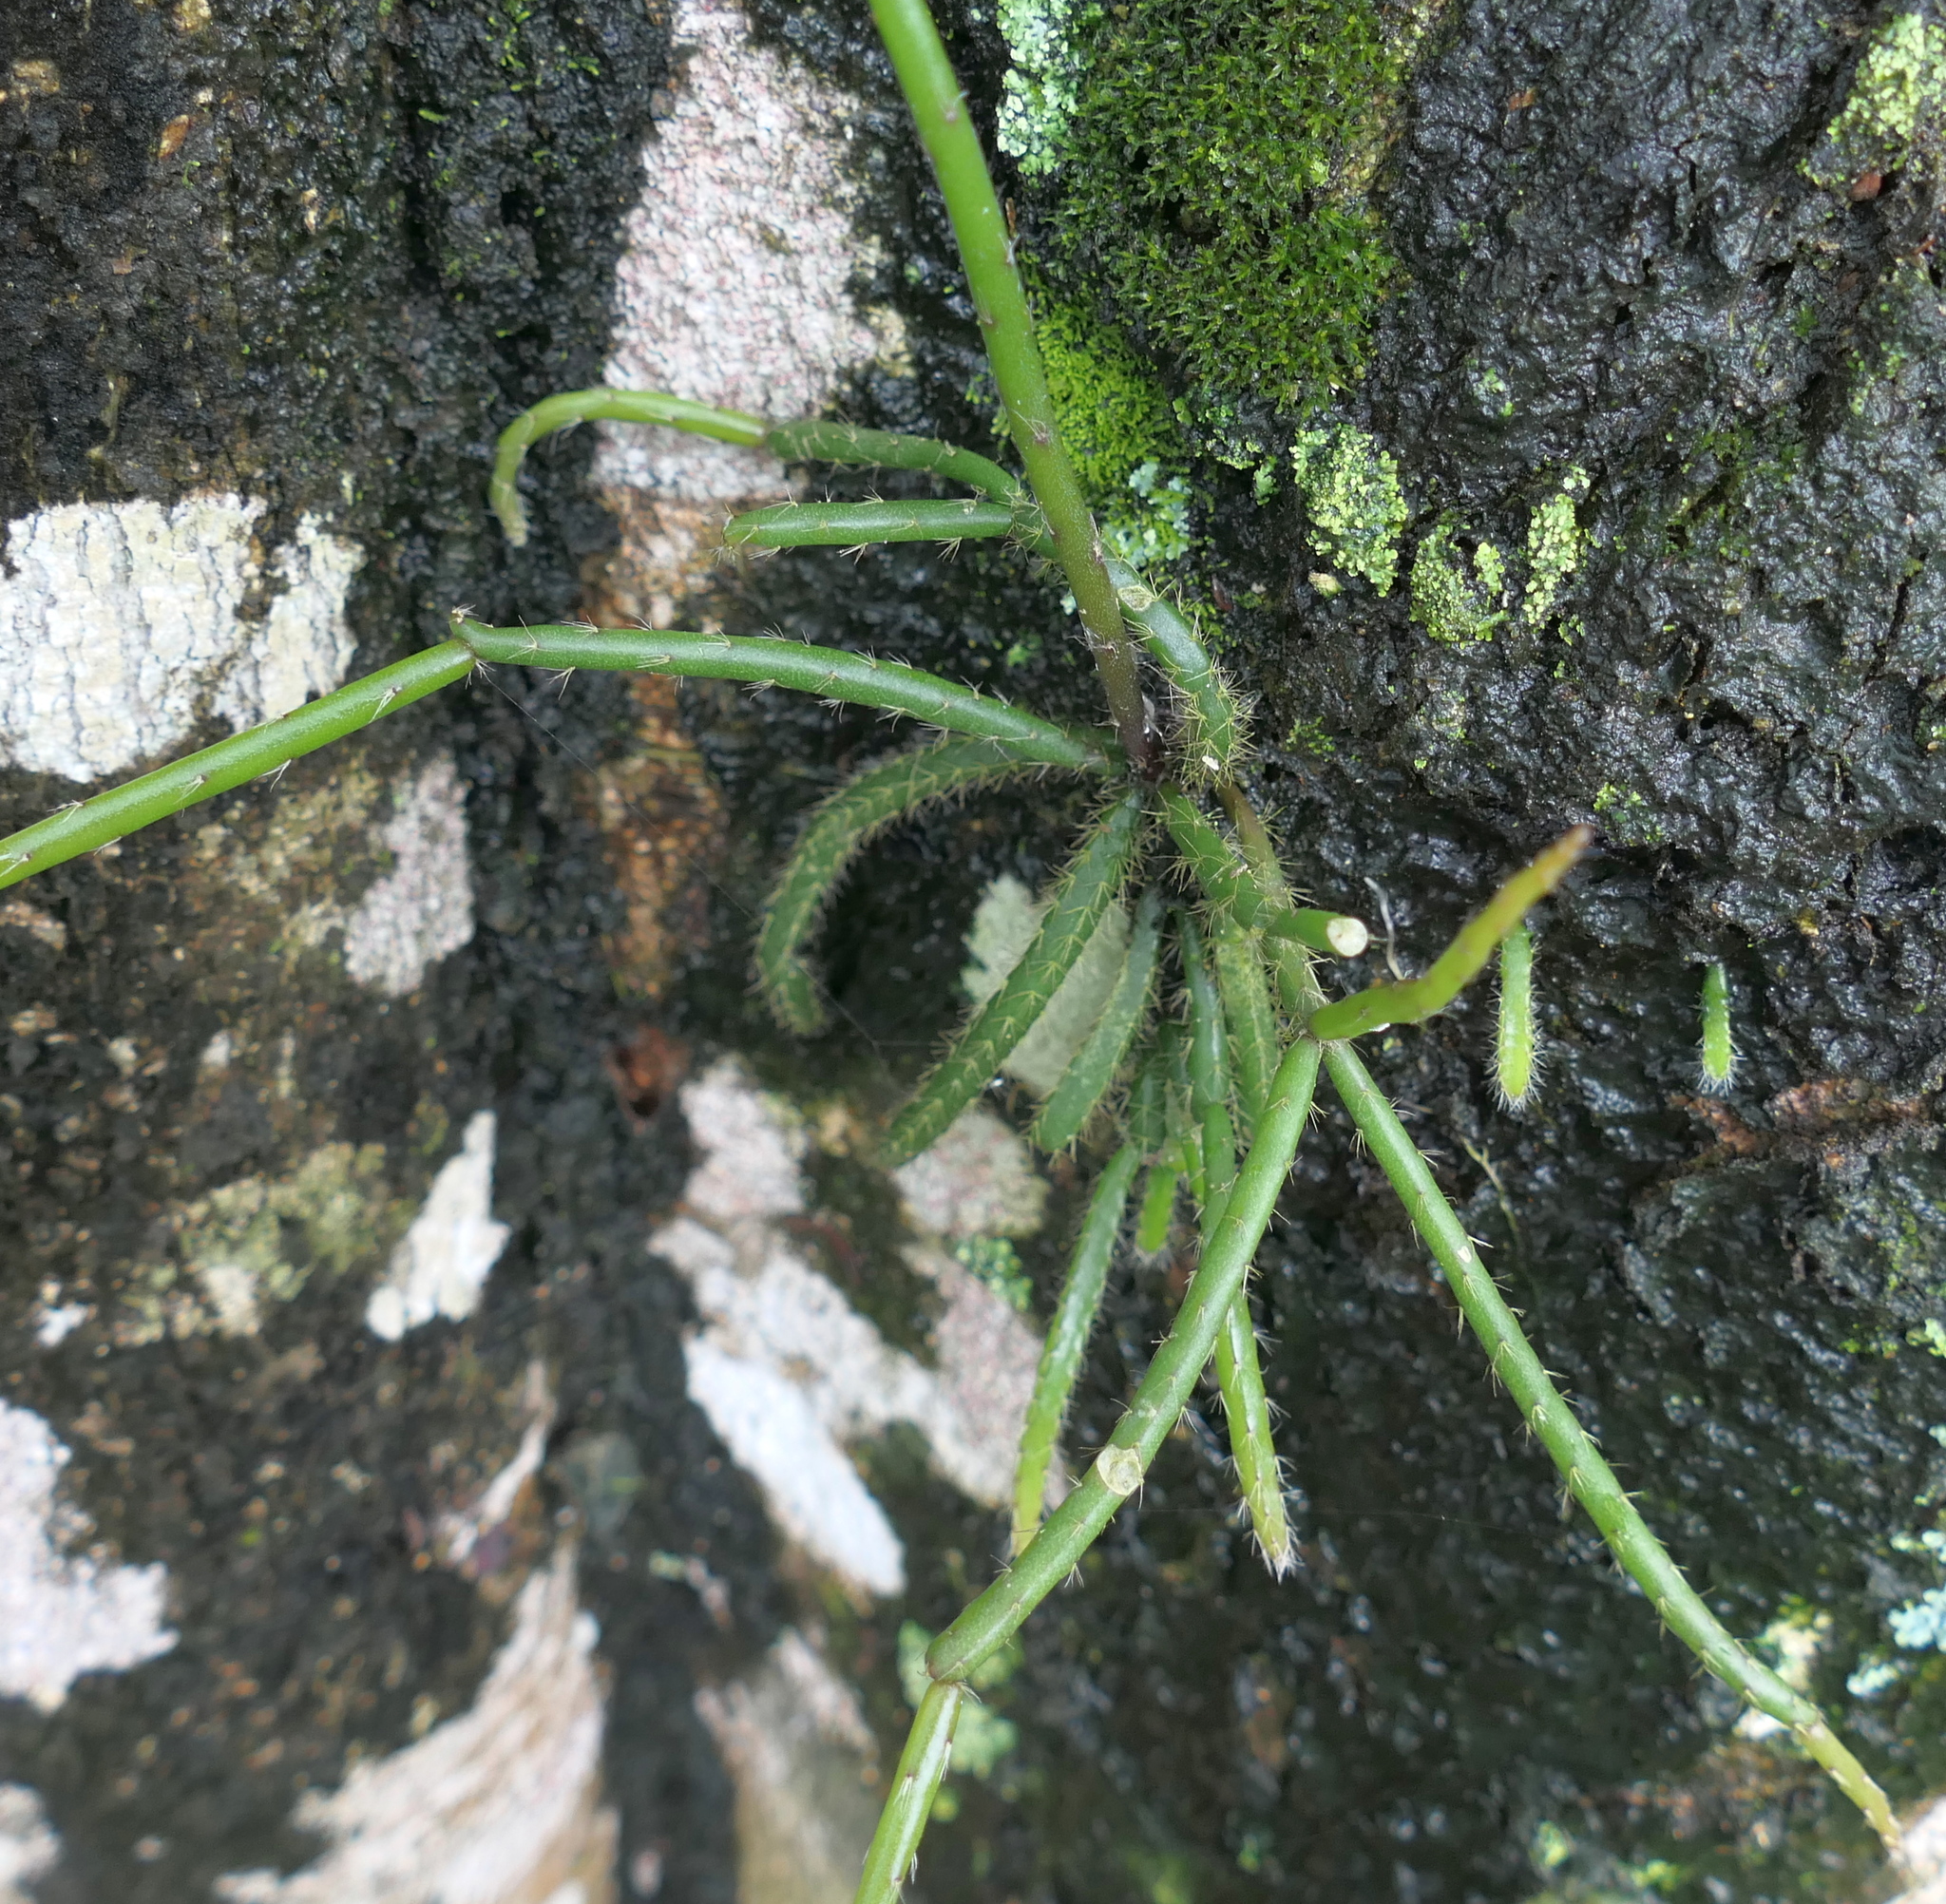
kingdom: Plantae
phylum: Tracheophyta
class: Magnoliopsida
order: Caryophyllales
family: Cactaceae
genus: Rhipsalis
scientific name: Rhipsalis baccifera
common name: Mistletoe cactus
